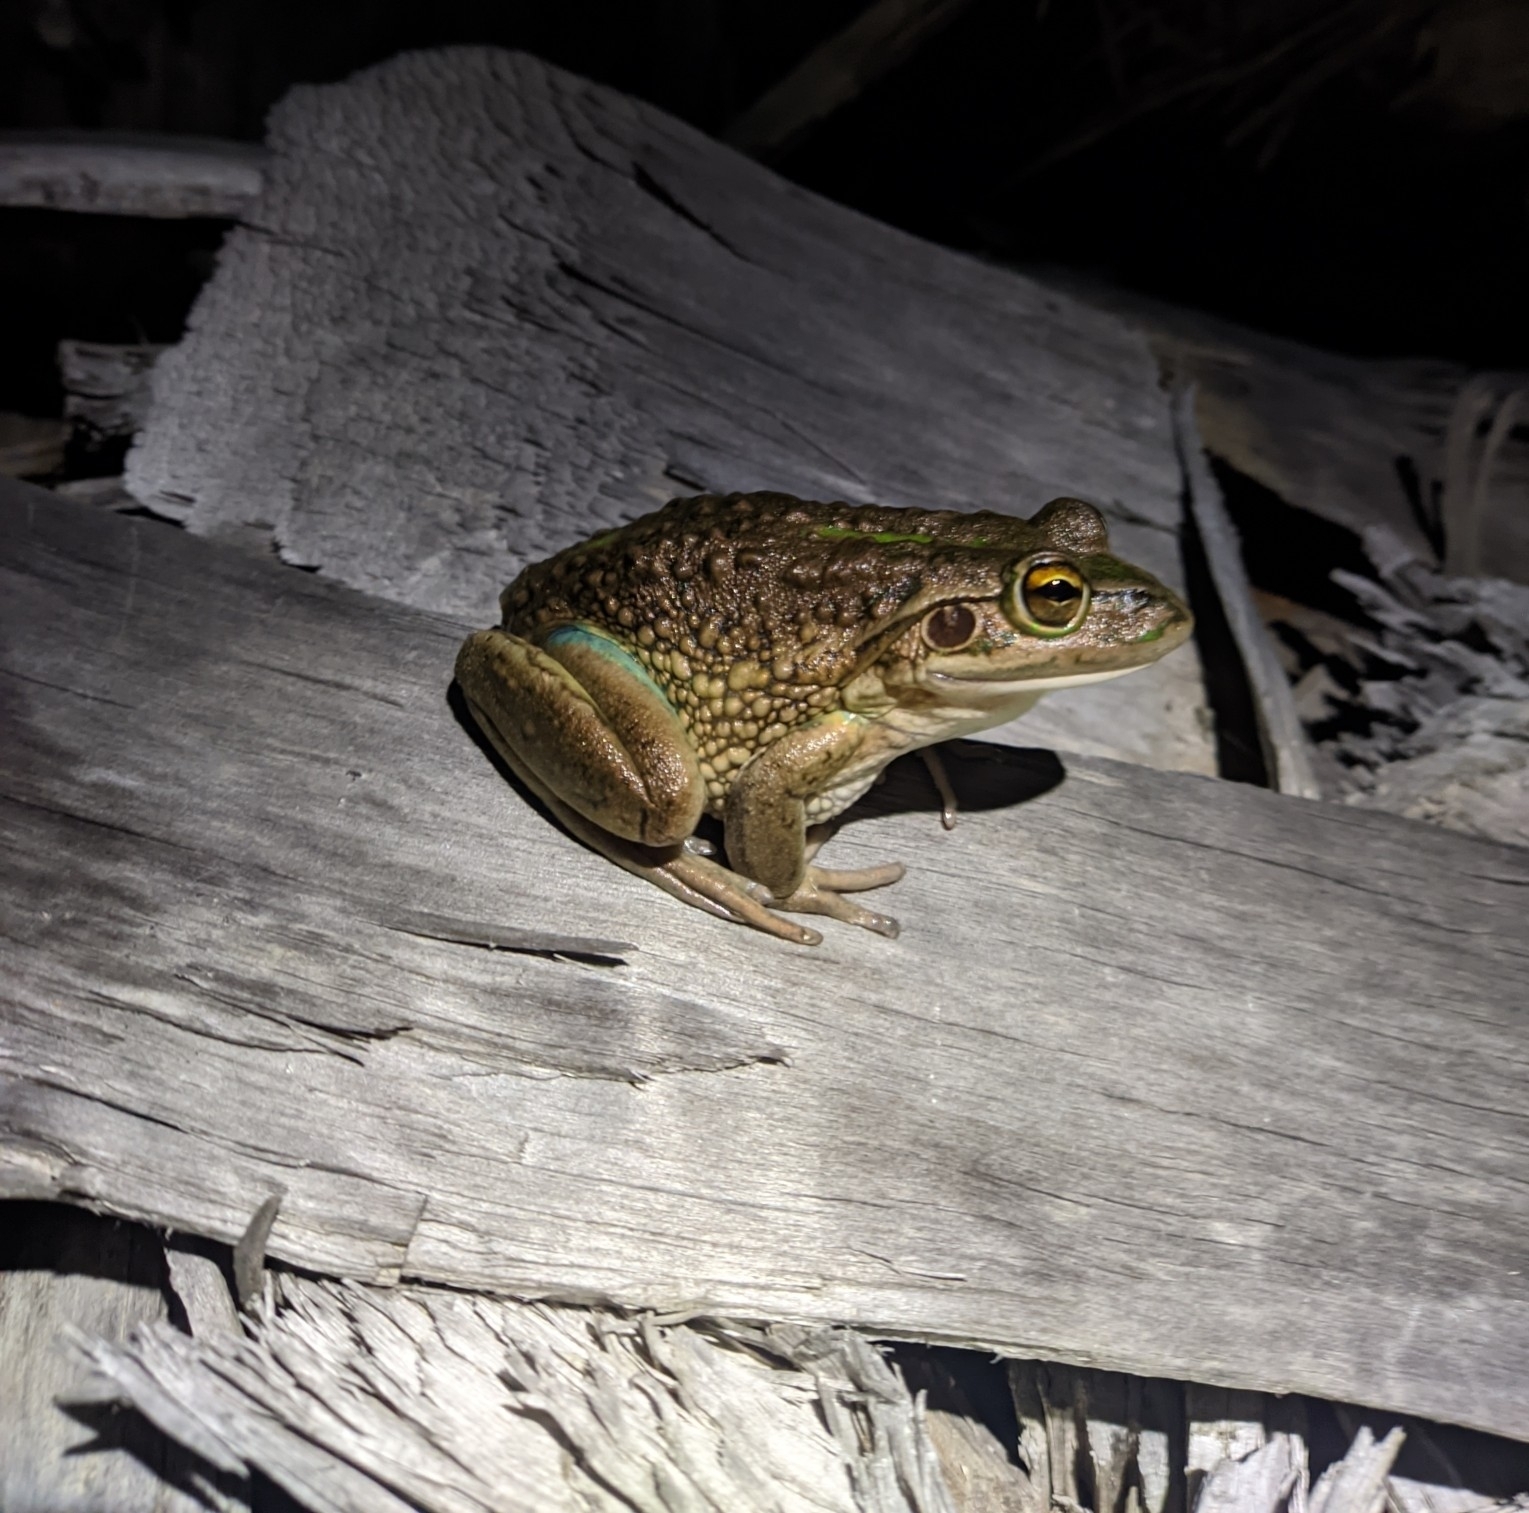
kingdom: Animalia
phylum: Chordata
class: Amphibia
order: Anura
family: Pelodryadidae
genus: Ranoidea
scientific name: Ranoidea raniformis
